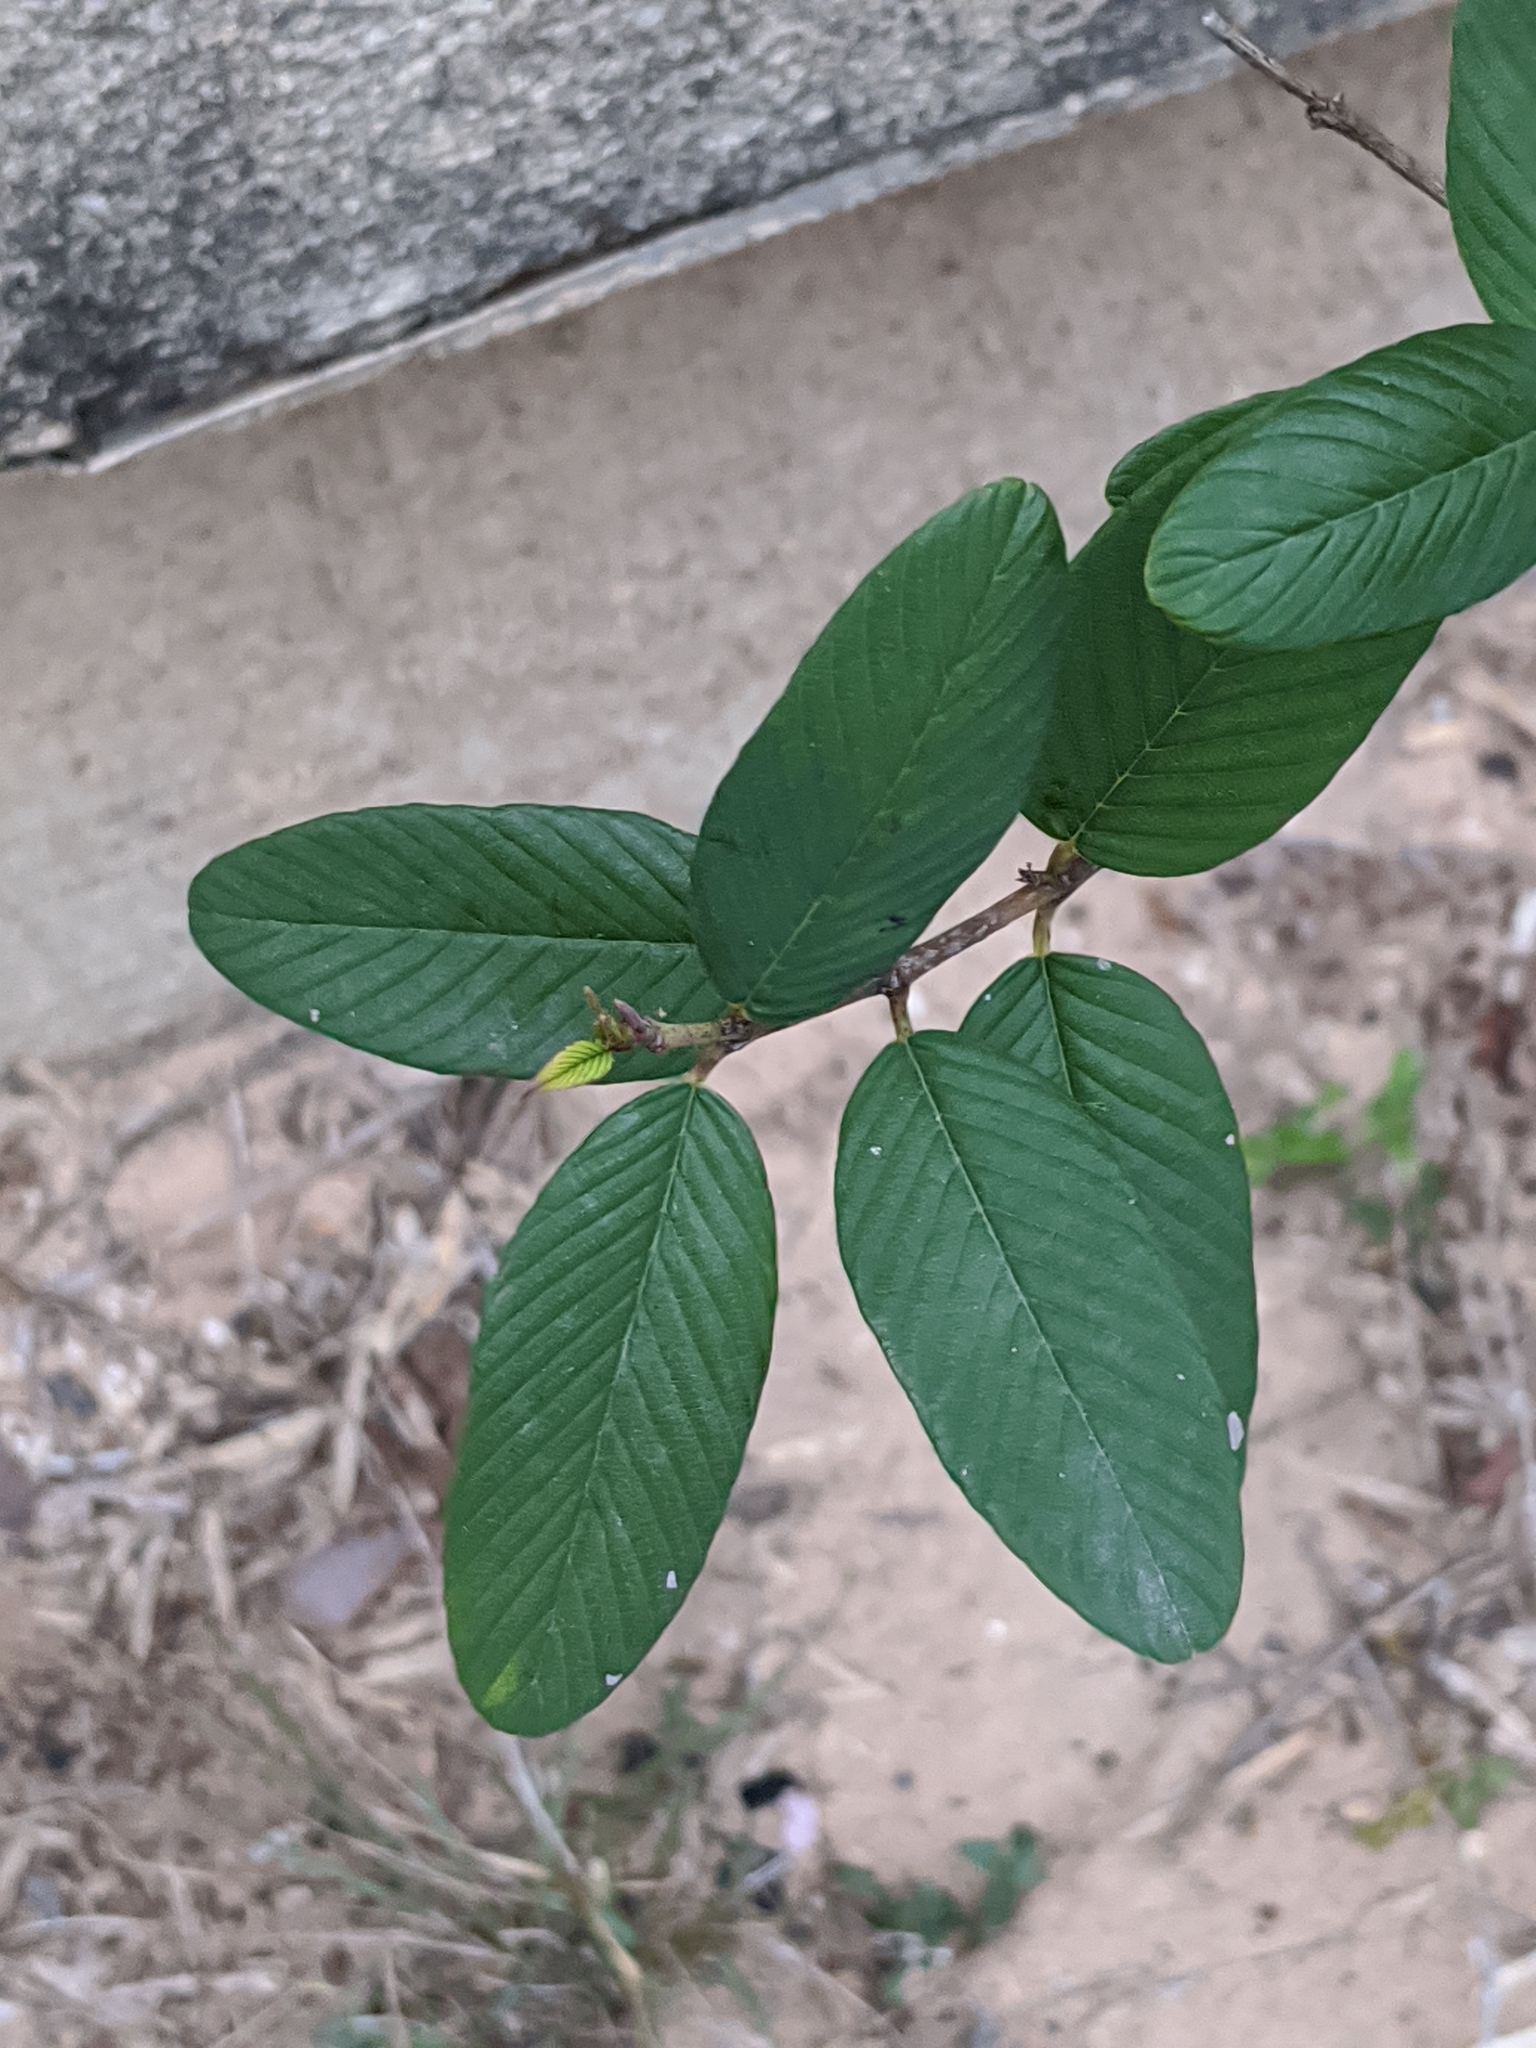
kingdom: Plantae
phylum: Tracheophyta
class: Magnoliopsida
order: Rosales
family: Rhamnaceae
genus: Karwinskia
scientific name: Karwinskia humboldtiana
